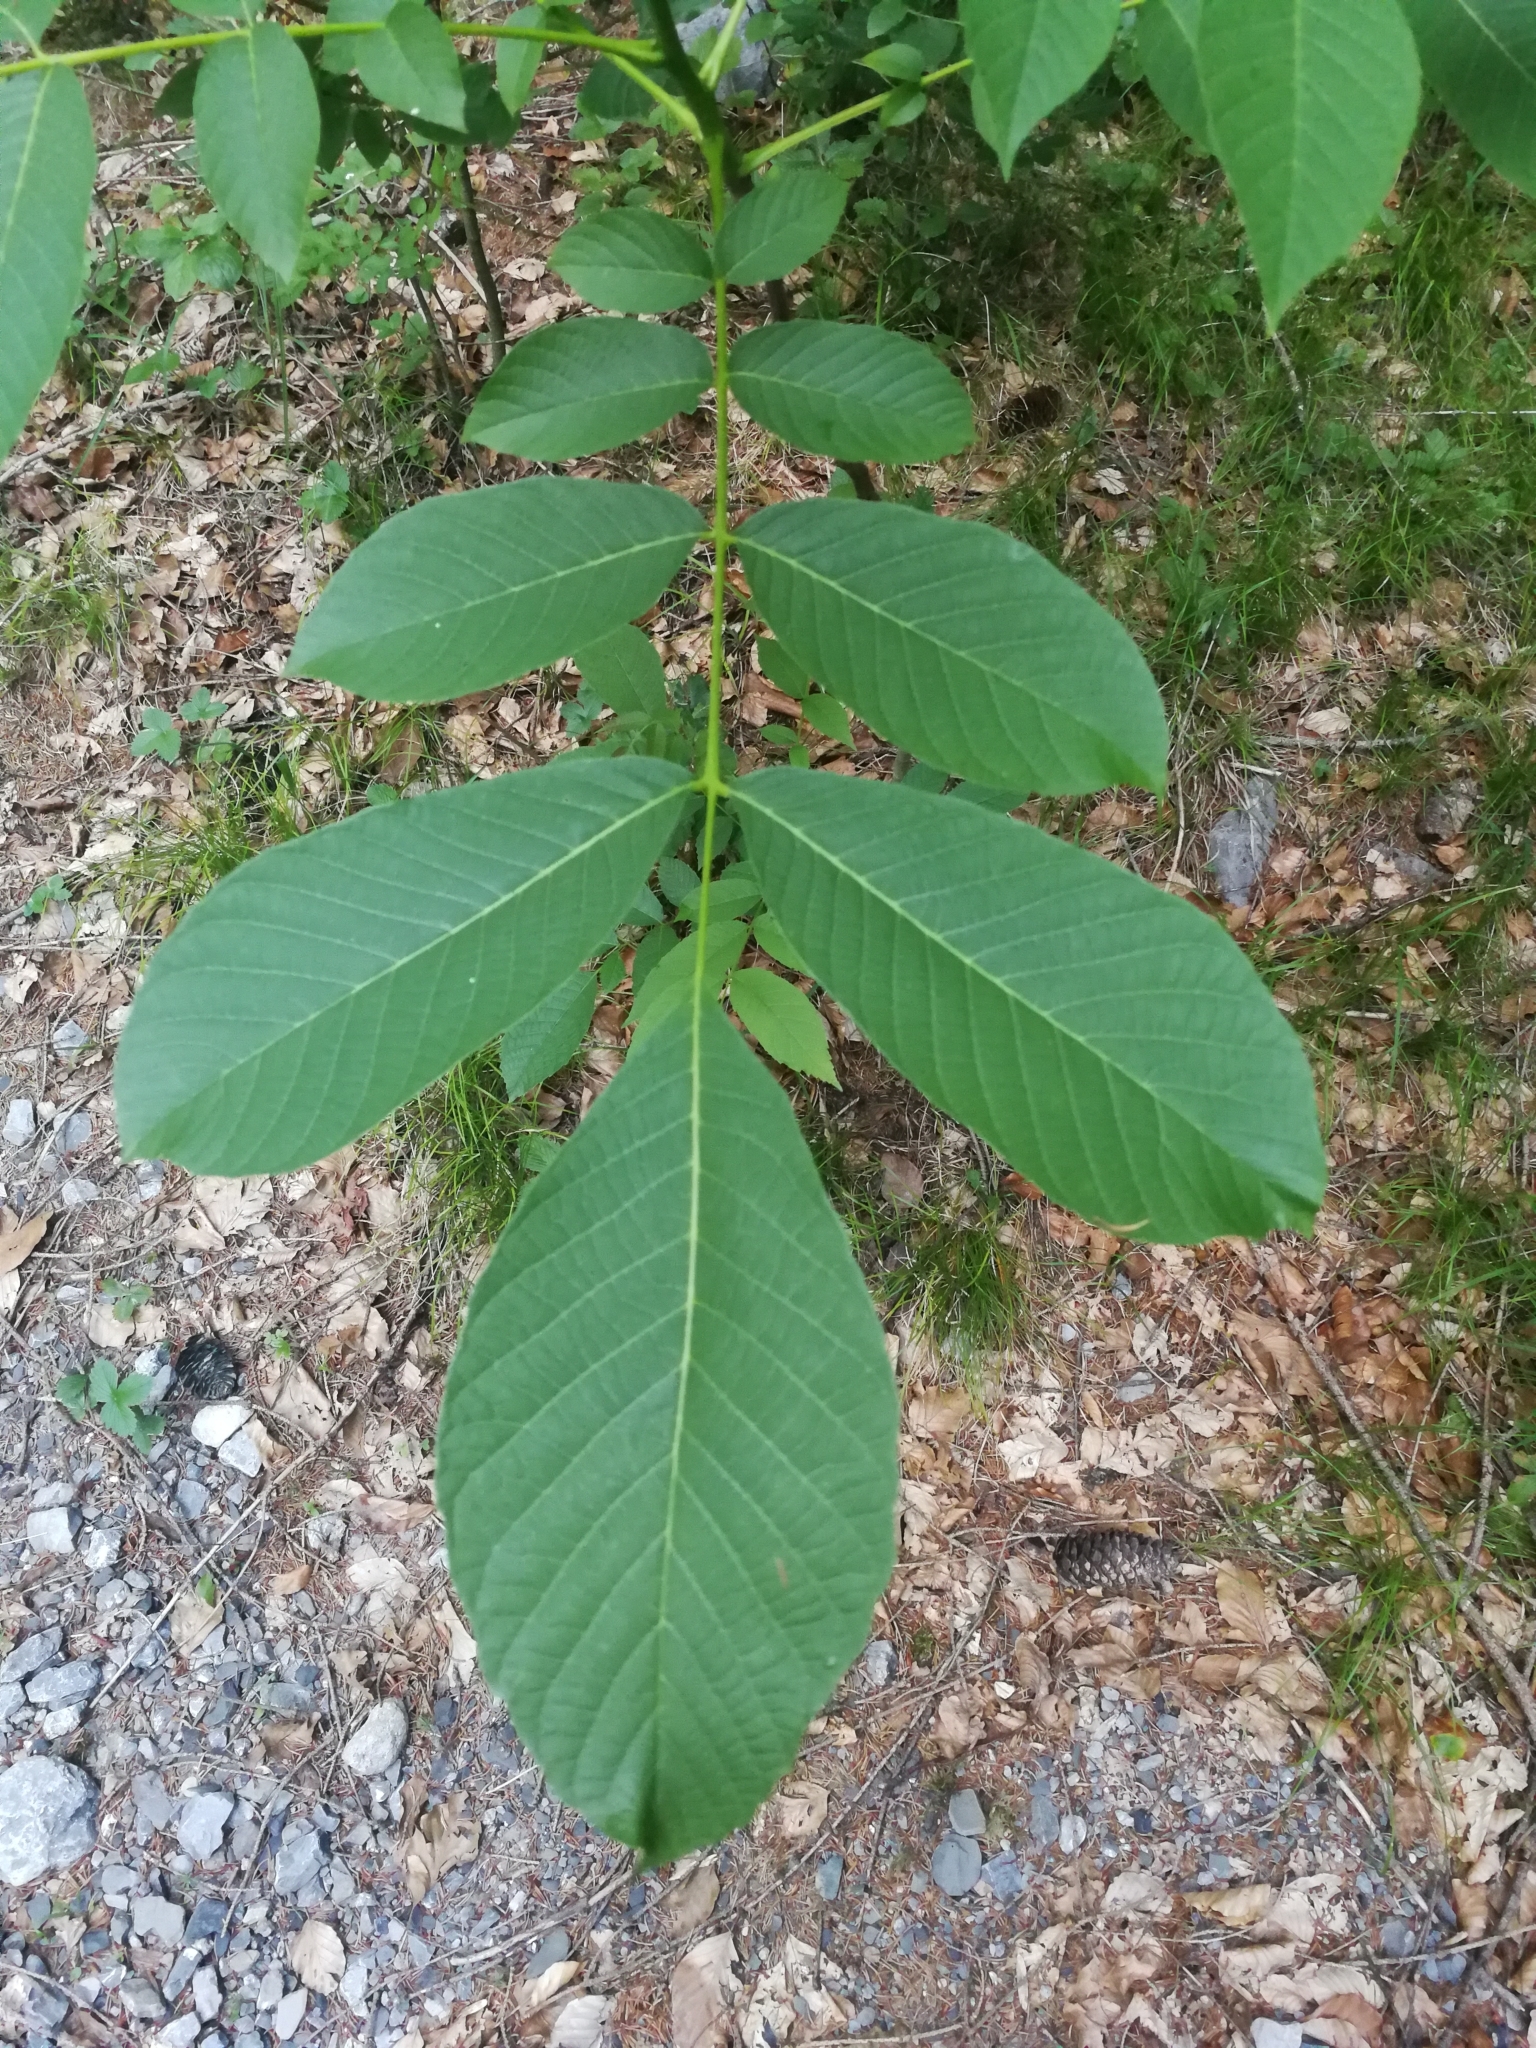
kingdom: Plantae
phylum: Tracheophyta
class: Magnoliopsida
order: Fagales
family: Juglandaceae
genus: Juglans
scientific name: Juglans regia
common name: Walnut
